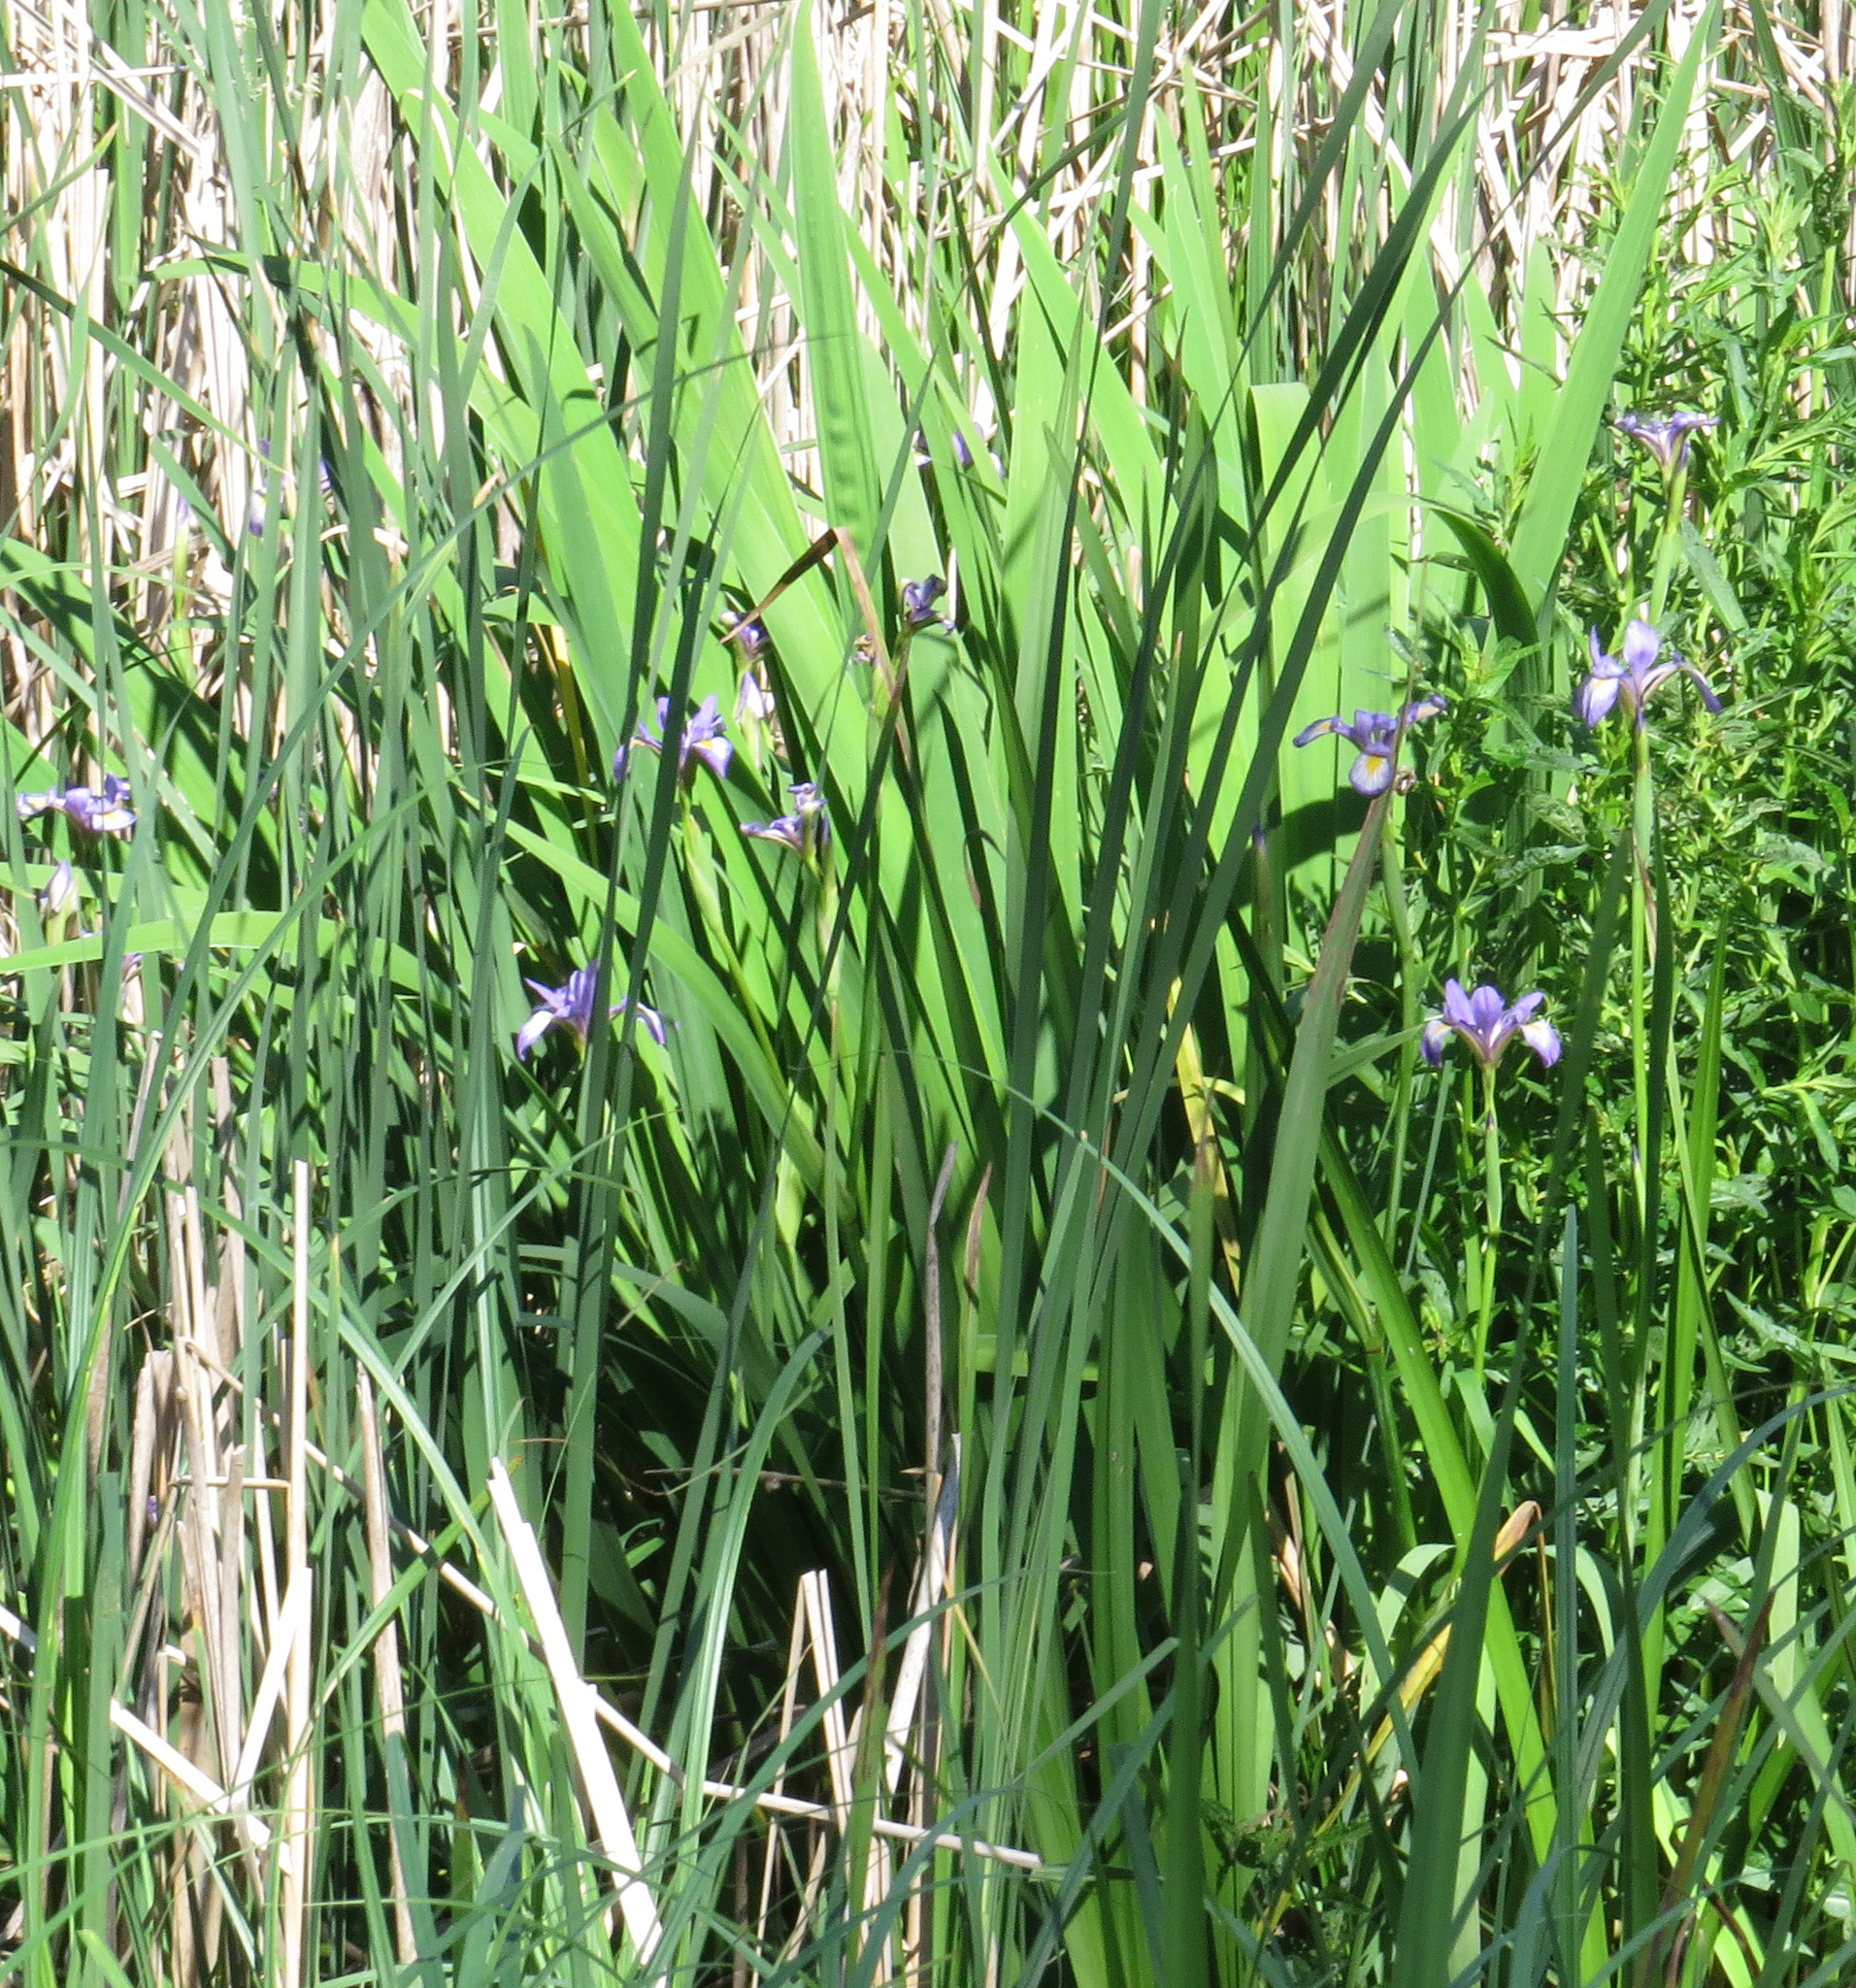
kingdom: Plantae
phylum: Tracheophyta
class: Liliopsida
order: Asparagales
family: Iridaceae
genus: Iris
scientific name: Iris virginica
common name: Southern blue flag
